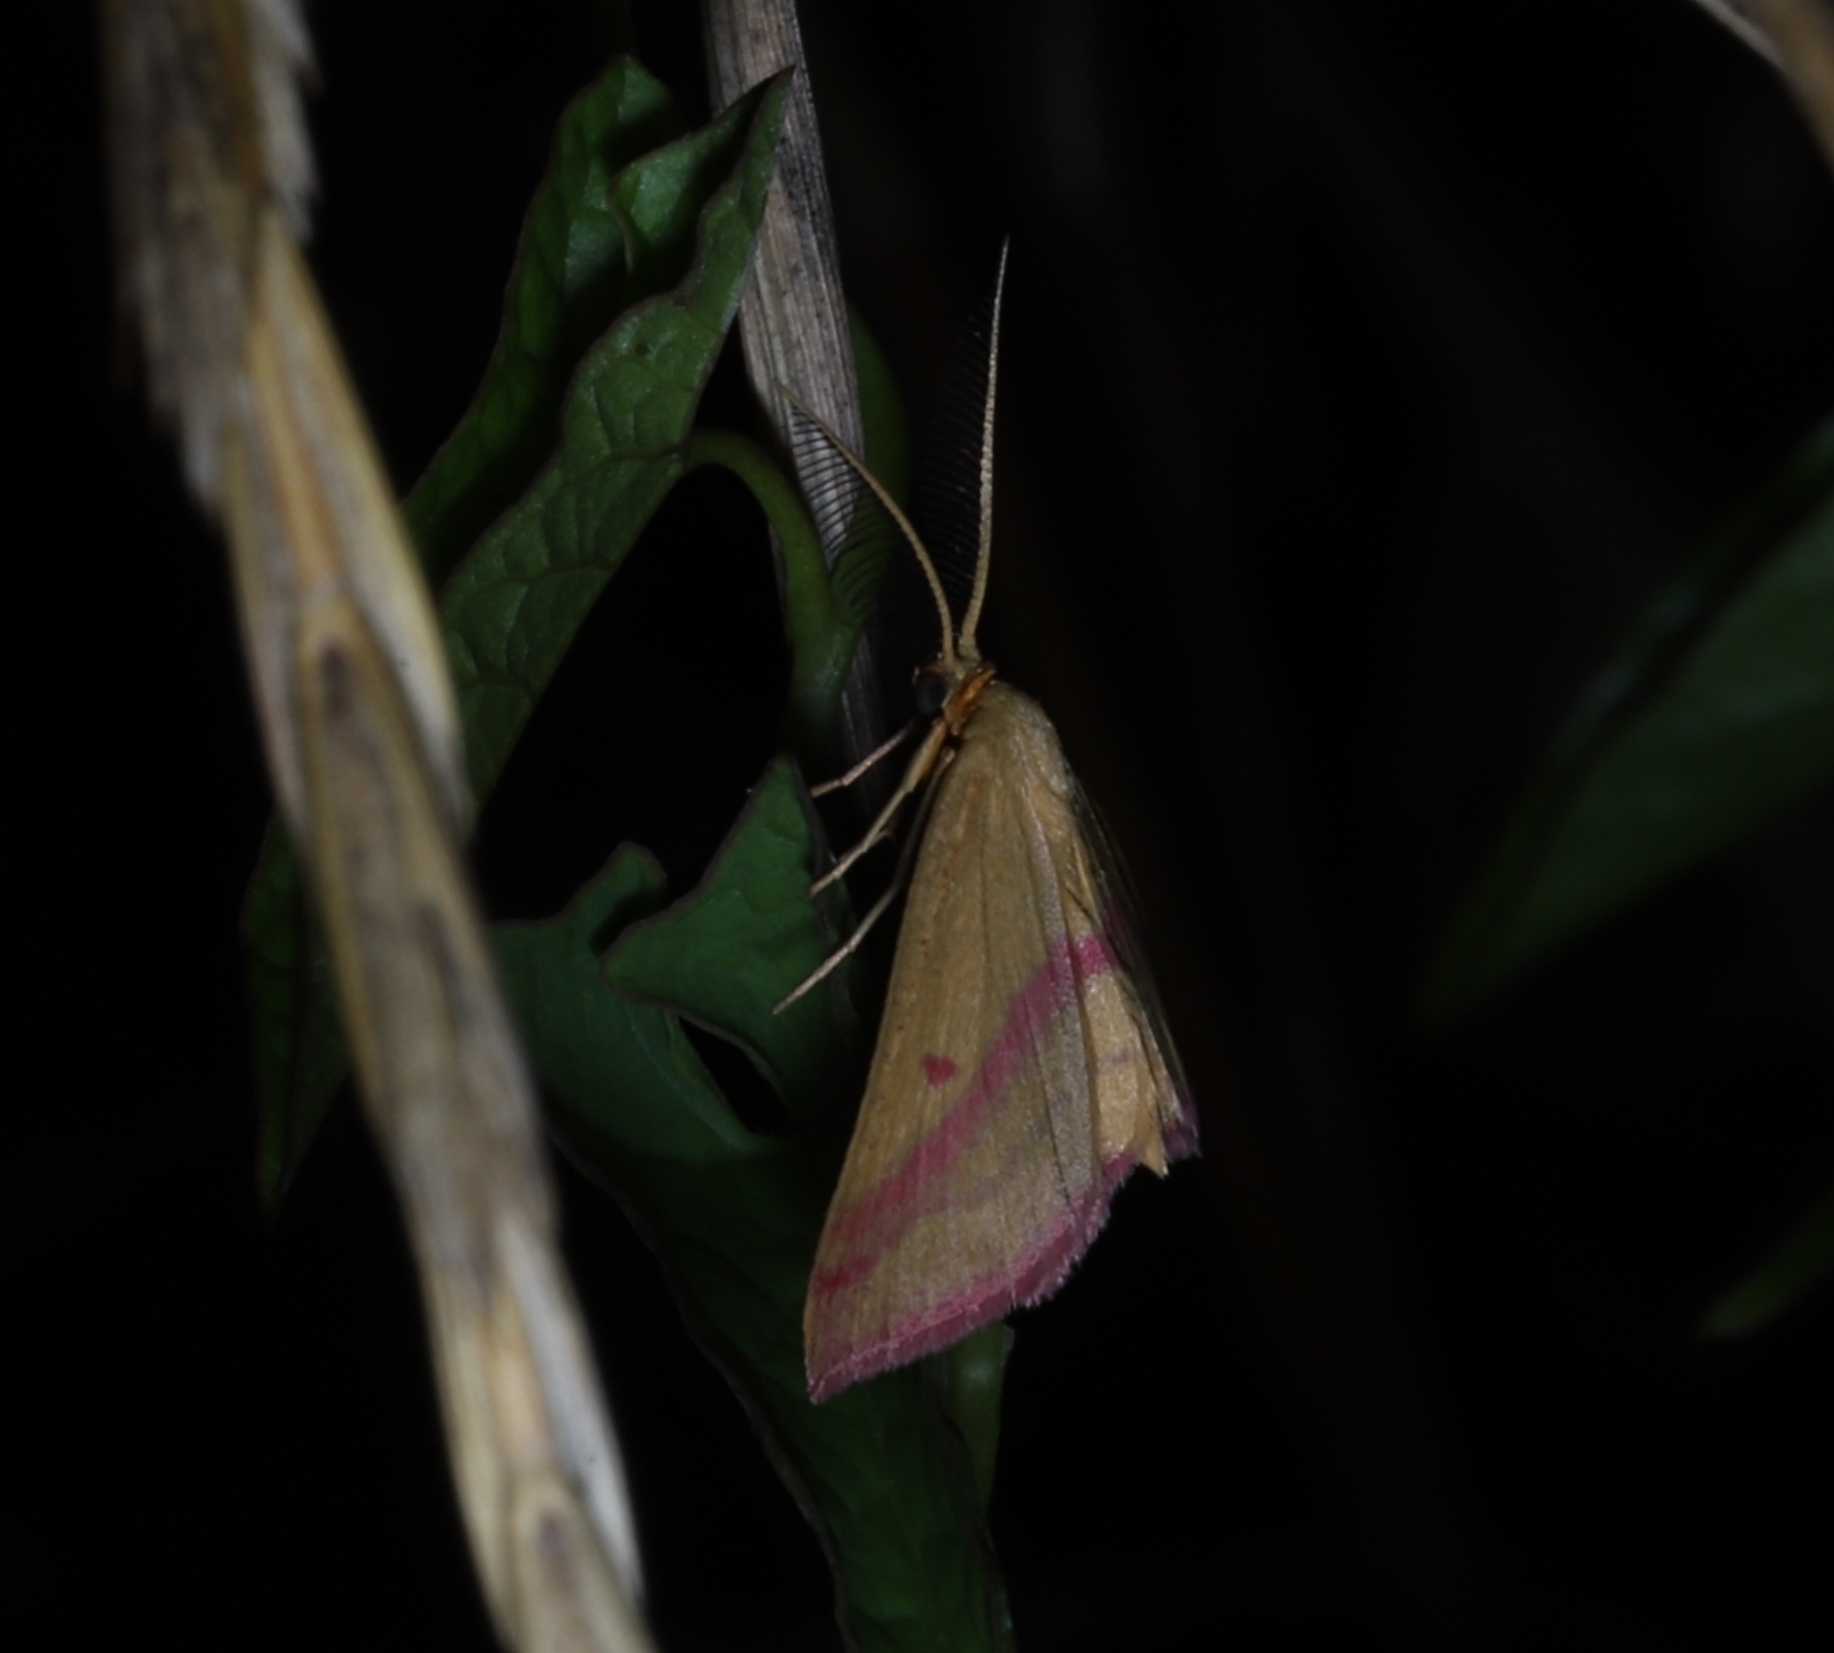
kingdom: Animalia
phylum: Arthropoda
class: Insecta
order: Lepidoptera
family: Geometridae
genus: Haematopis
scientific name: Haematopis grataria
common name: Chickweed geometer
